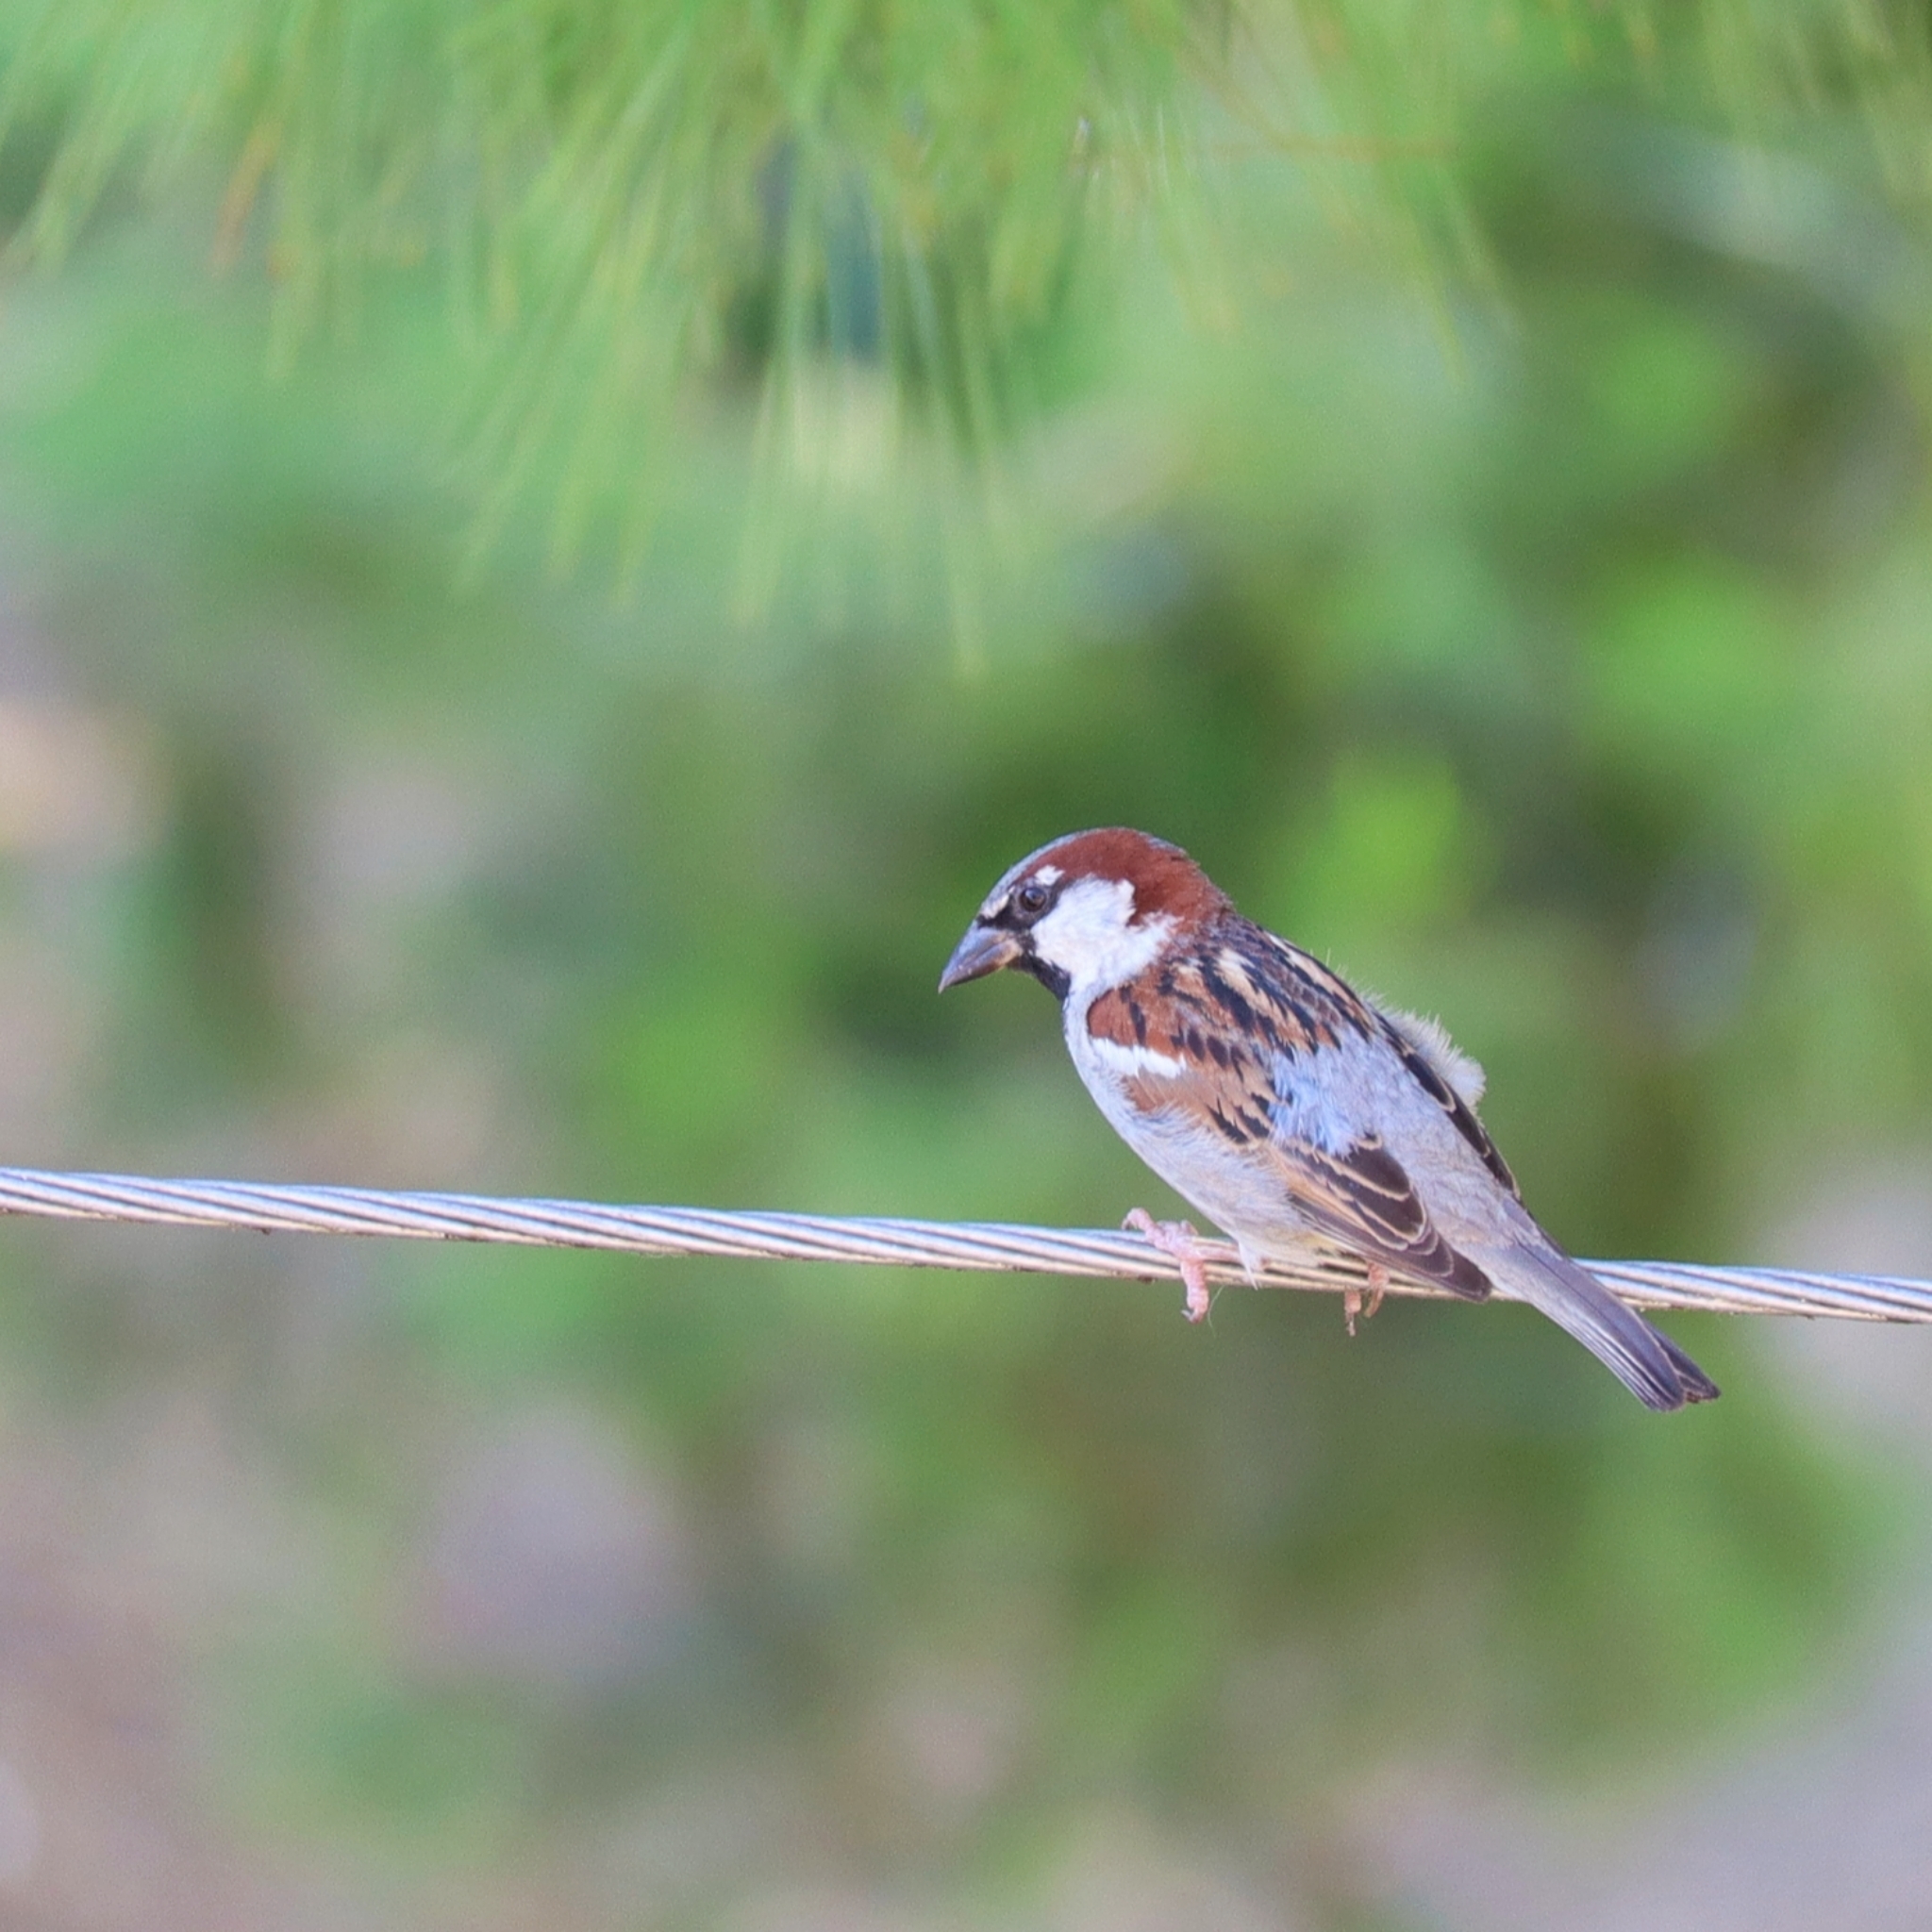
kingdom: Animalia
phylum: Chordata
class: Aves
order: Passeriformes
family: Passeridae
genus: Passer
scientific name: Passer domesticus
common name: House sparrow
